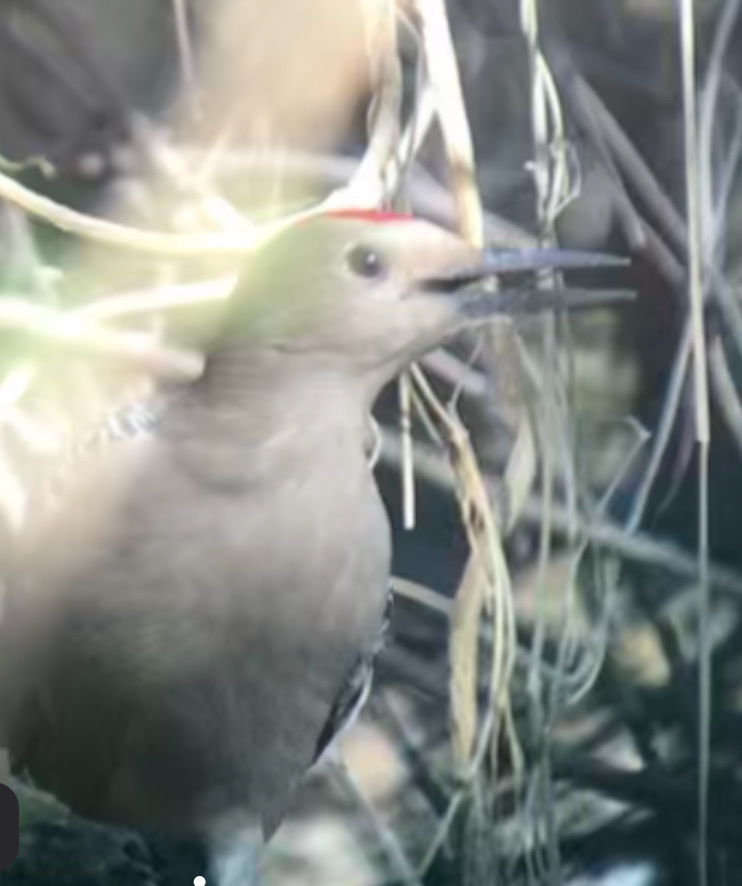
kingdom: Animalia
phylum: Chordata
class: Aves
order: Piciformes
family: Picidae
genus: Melanerpes
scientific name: Melanerpes uropygialis
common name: Gila woodpecker
